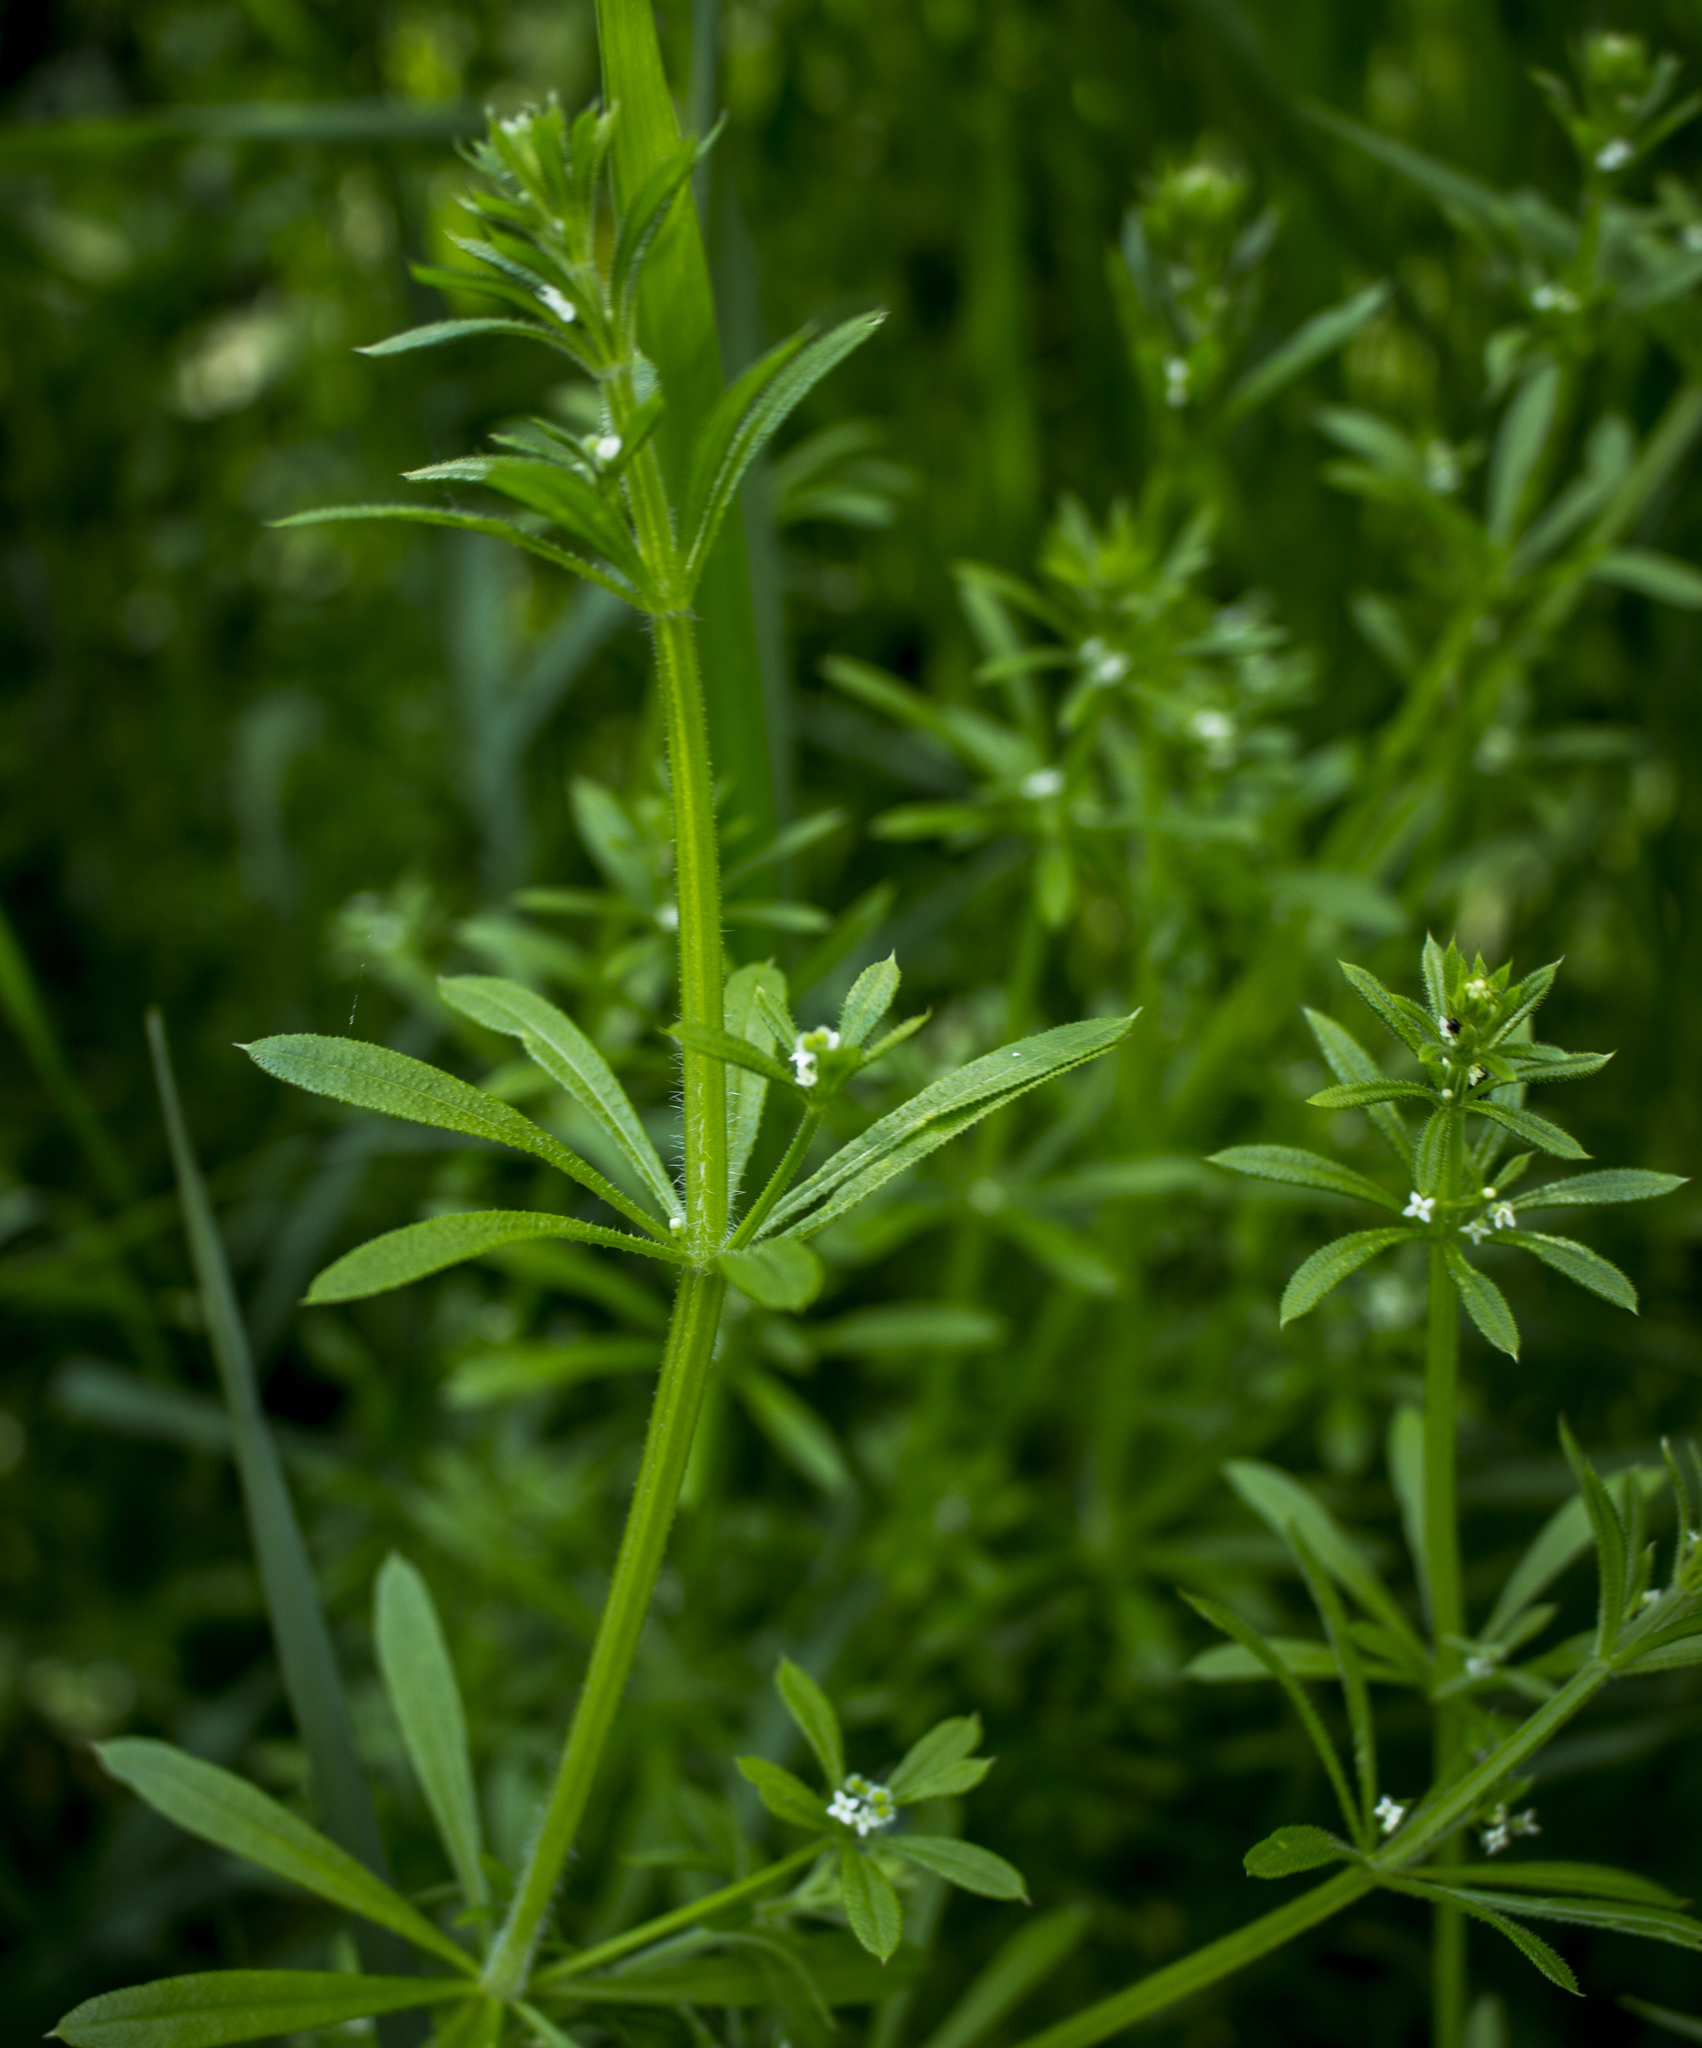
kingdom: Plantae
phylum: Tracheophyta
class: Magnoliopsida
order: Gentianales
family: Rubiaceae
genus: Galium
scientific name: Galium aparine
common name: Cleavers
